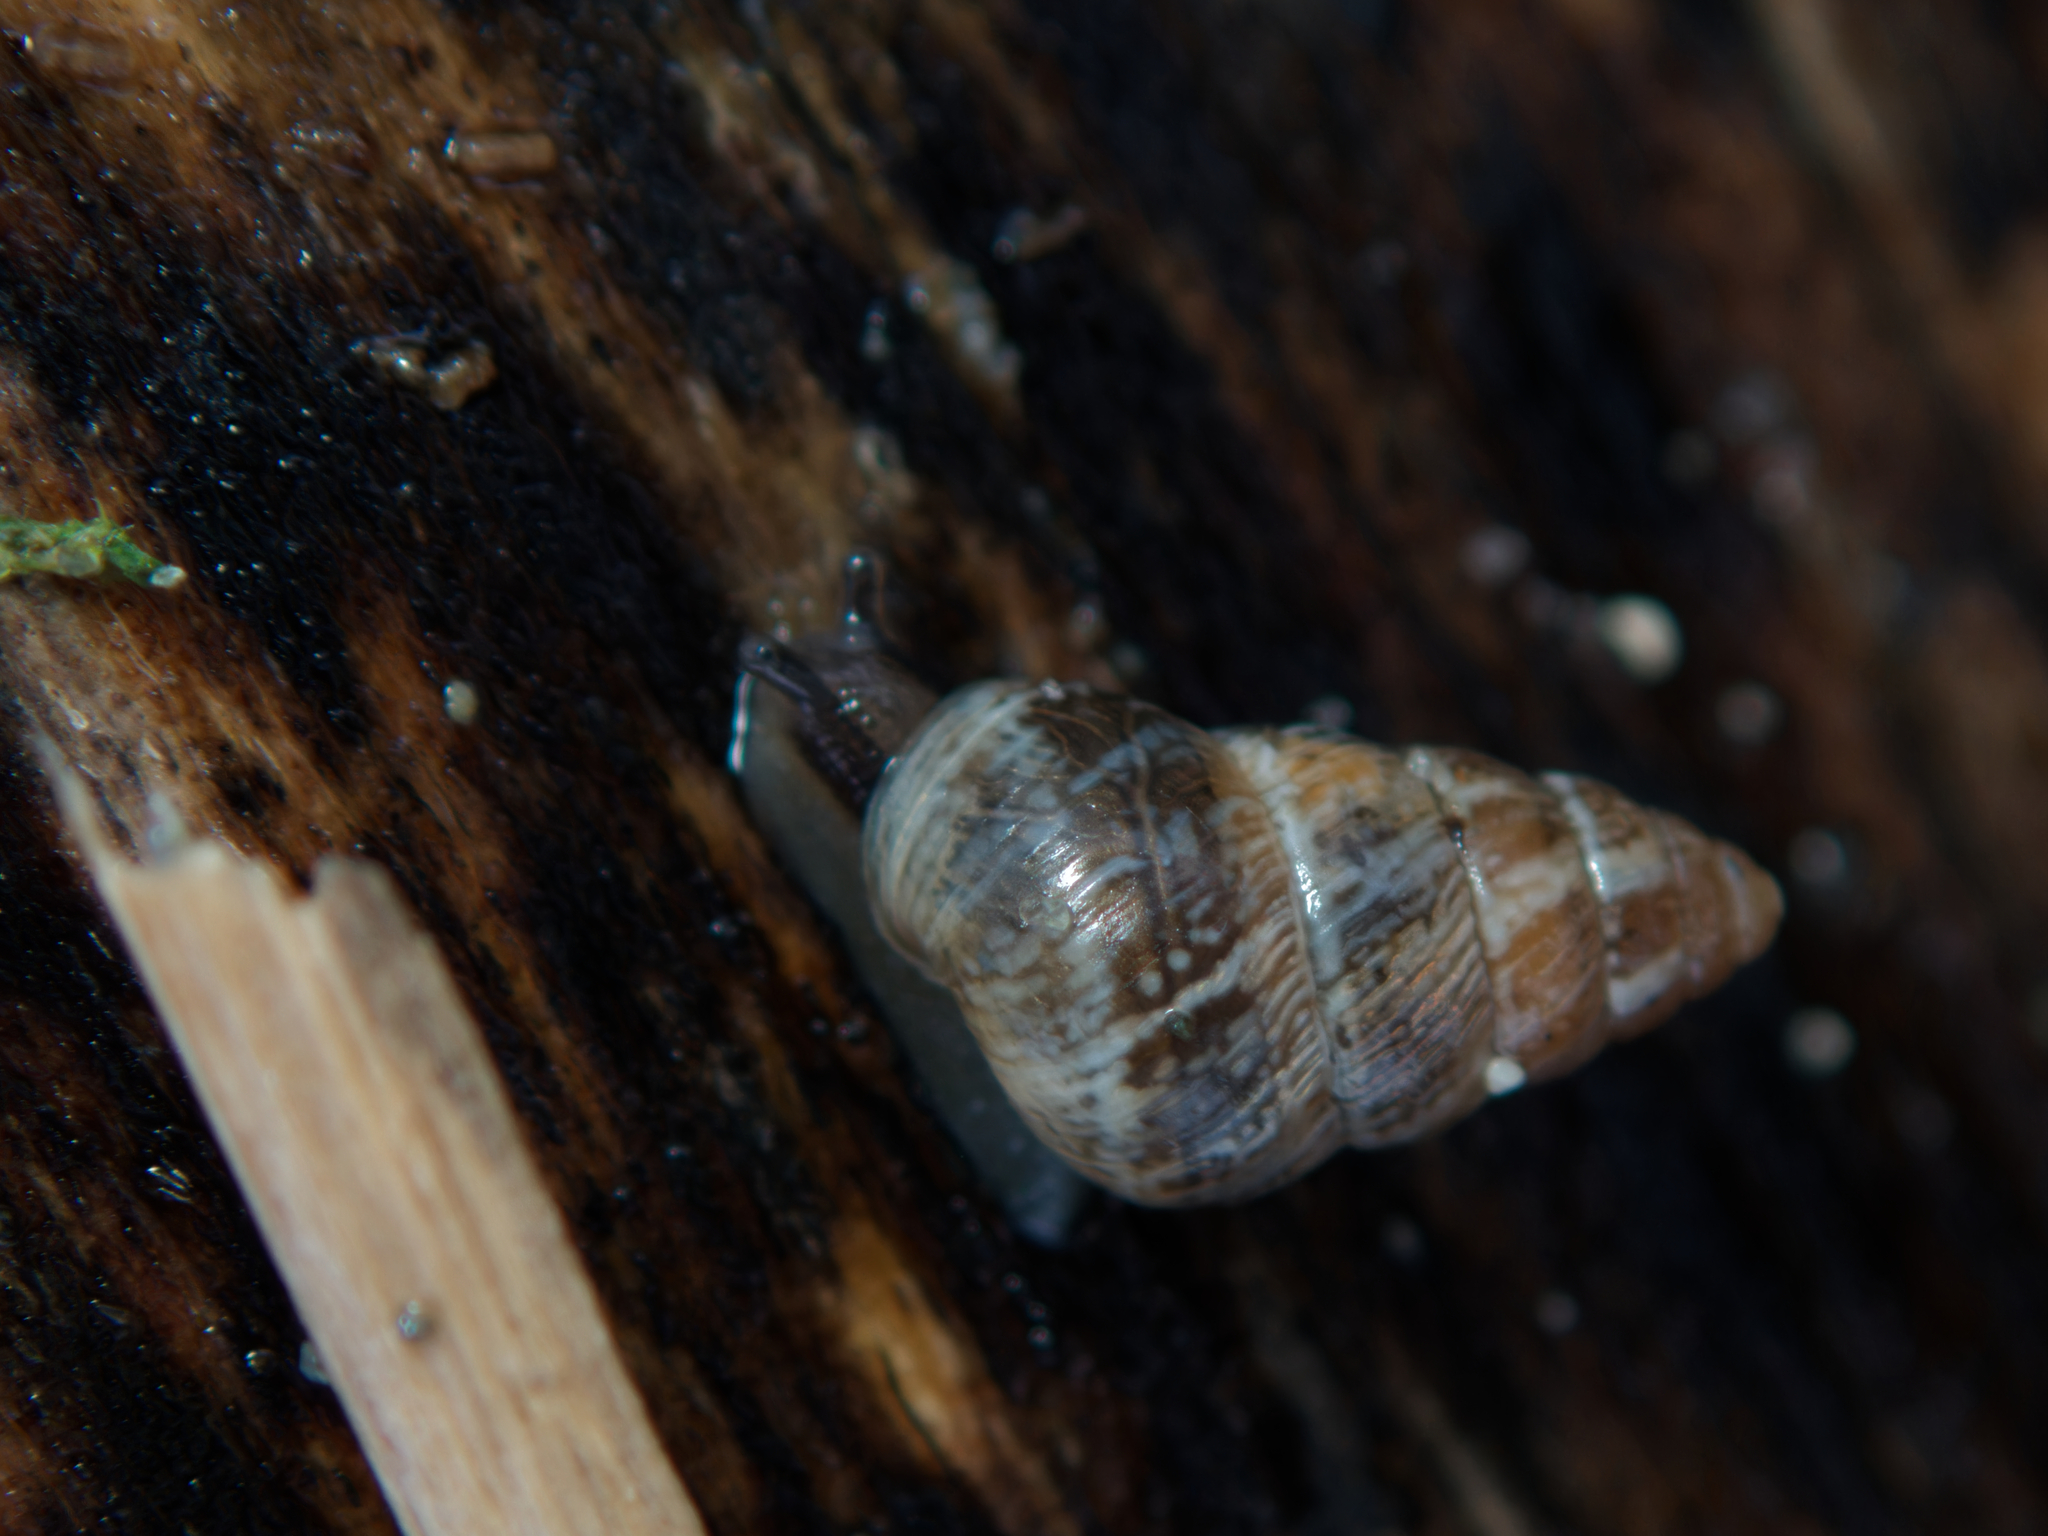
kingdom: Animalia
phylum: Mollusca
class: Gastropoda
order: Stylommatophora
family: Geomitridae
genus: Cochlicella
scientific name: Cochlicella barbara
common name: Potbellied helicellid
